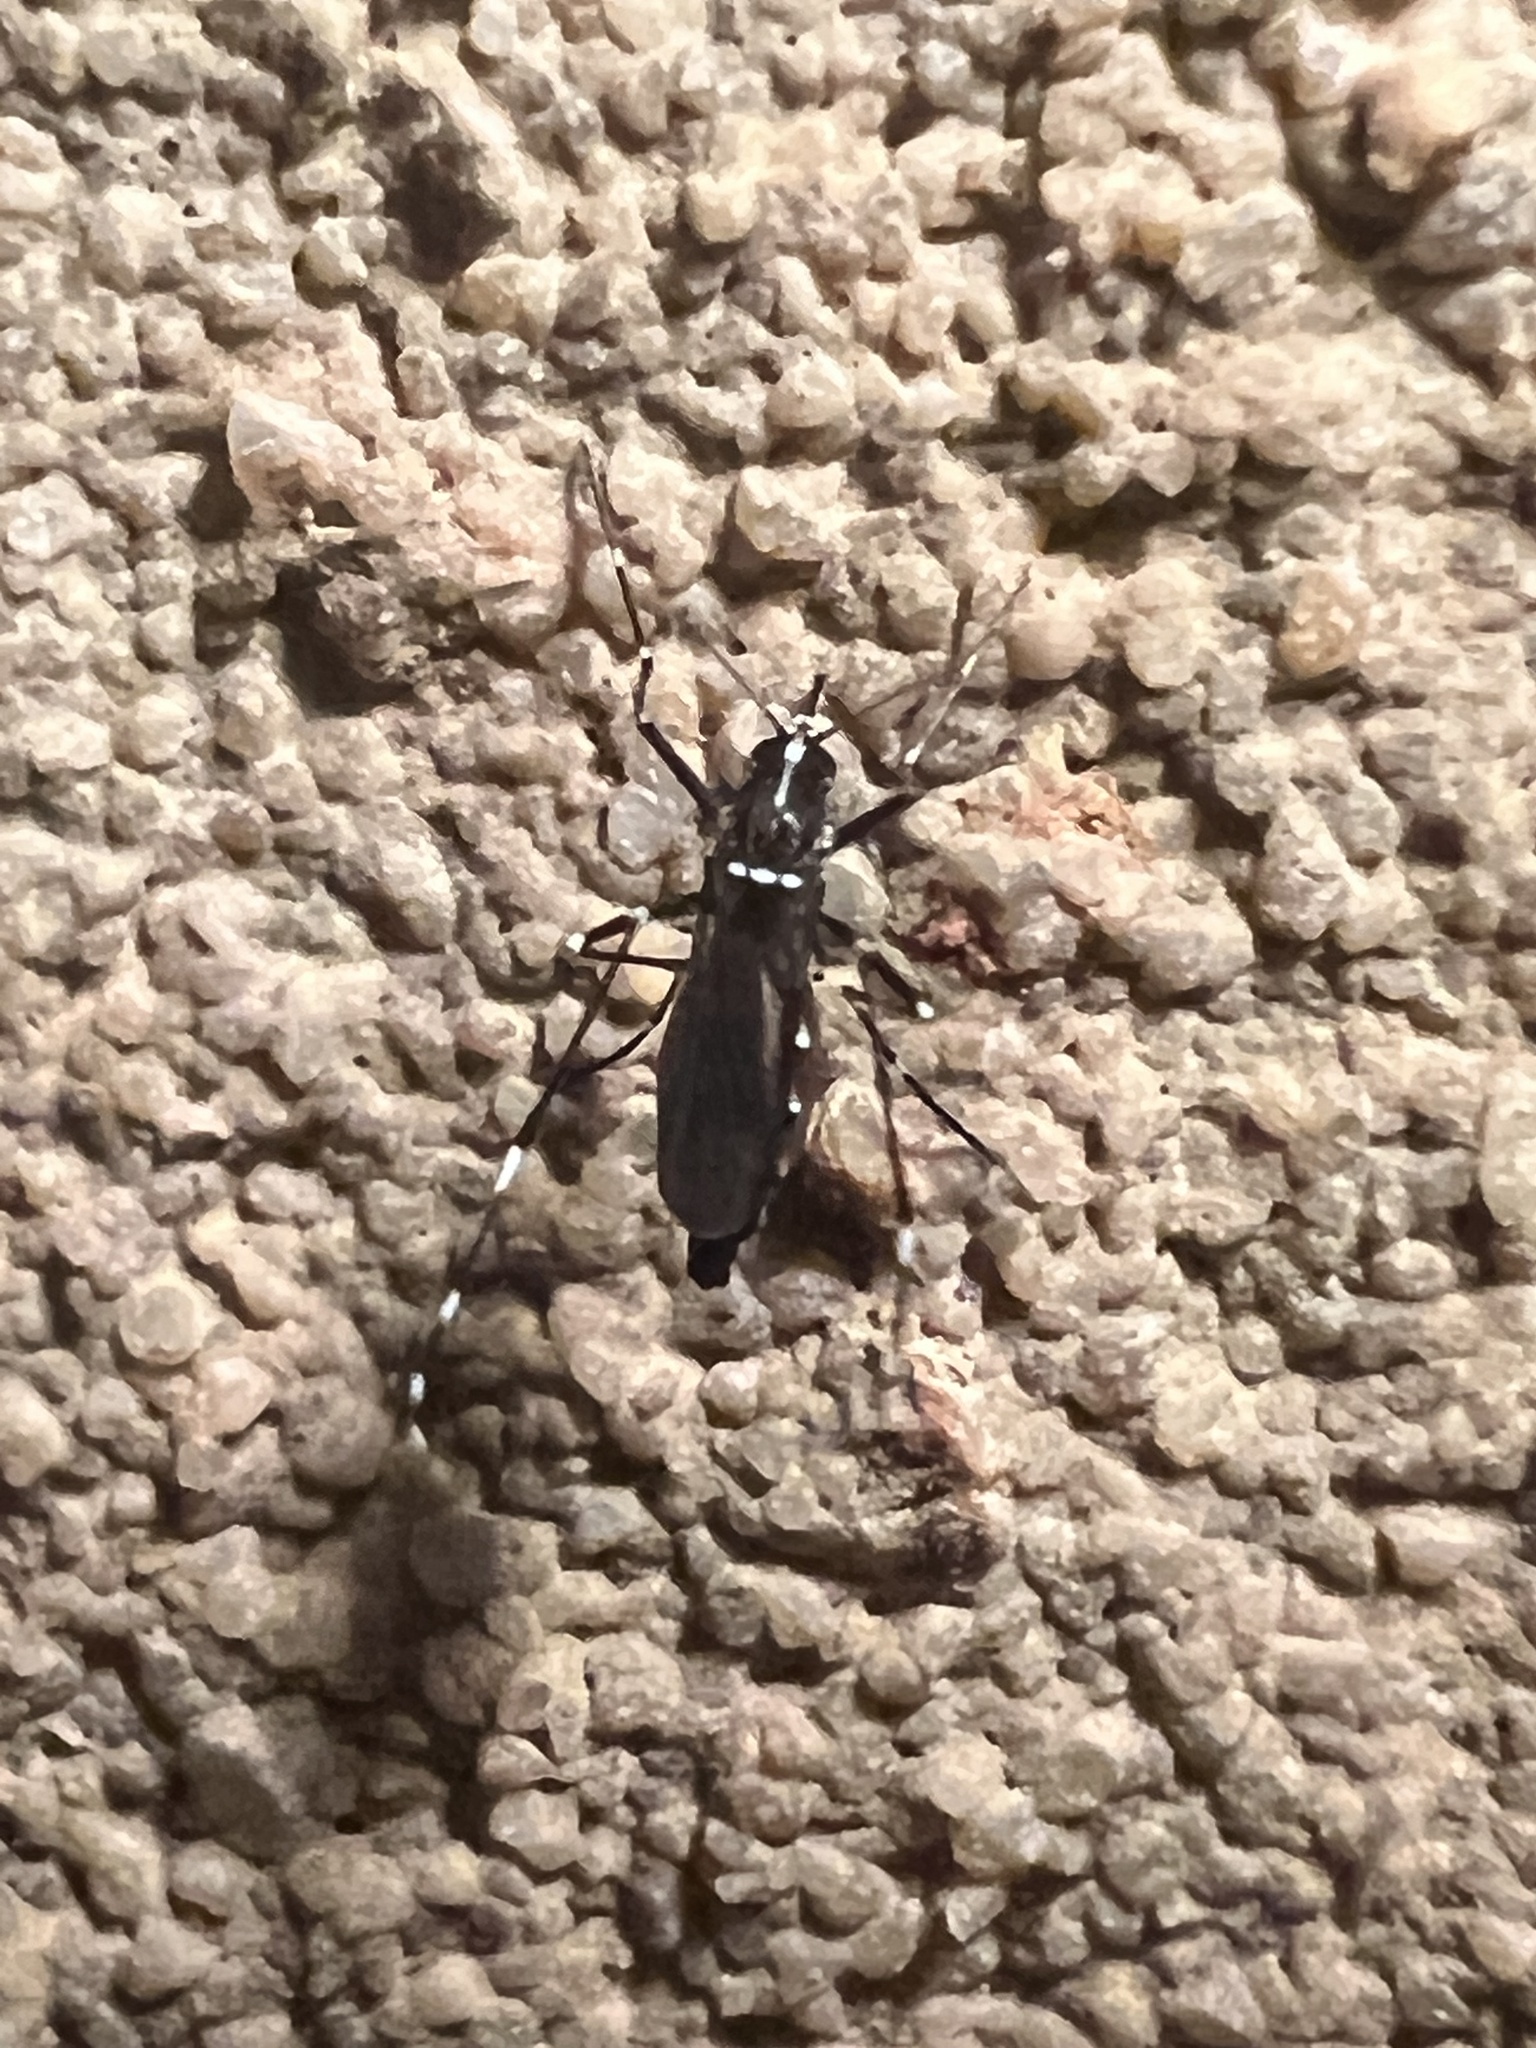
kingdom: Animalia
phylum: Arthropoda
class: Insecta
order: Diptera
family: Culicidae
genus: Aedes
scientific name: Aedes albopictus
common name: Tiger mosquito
